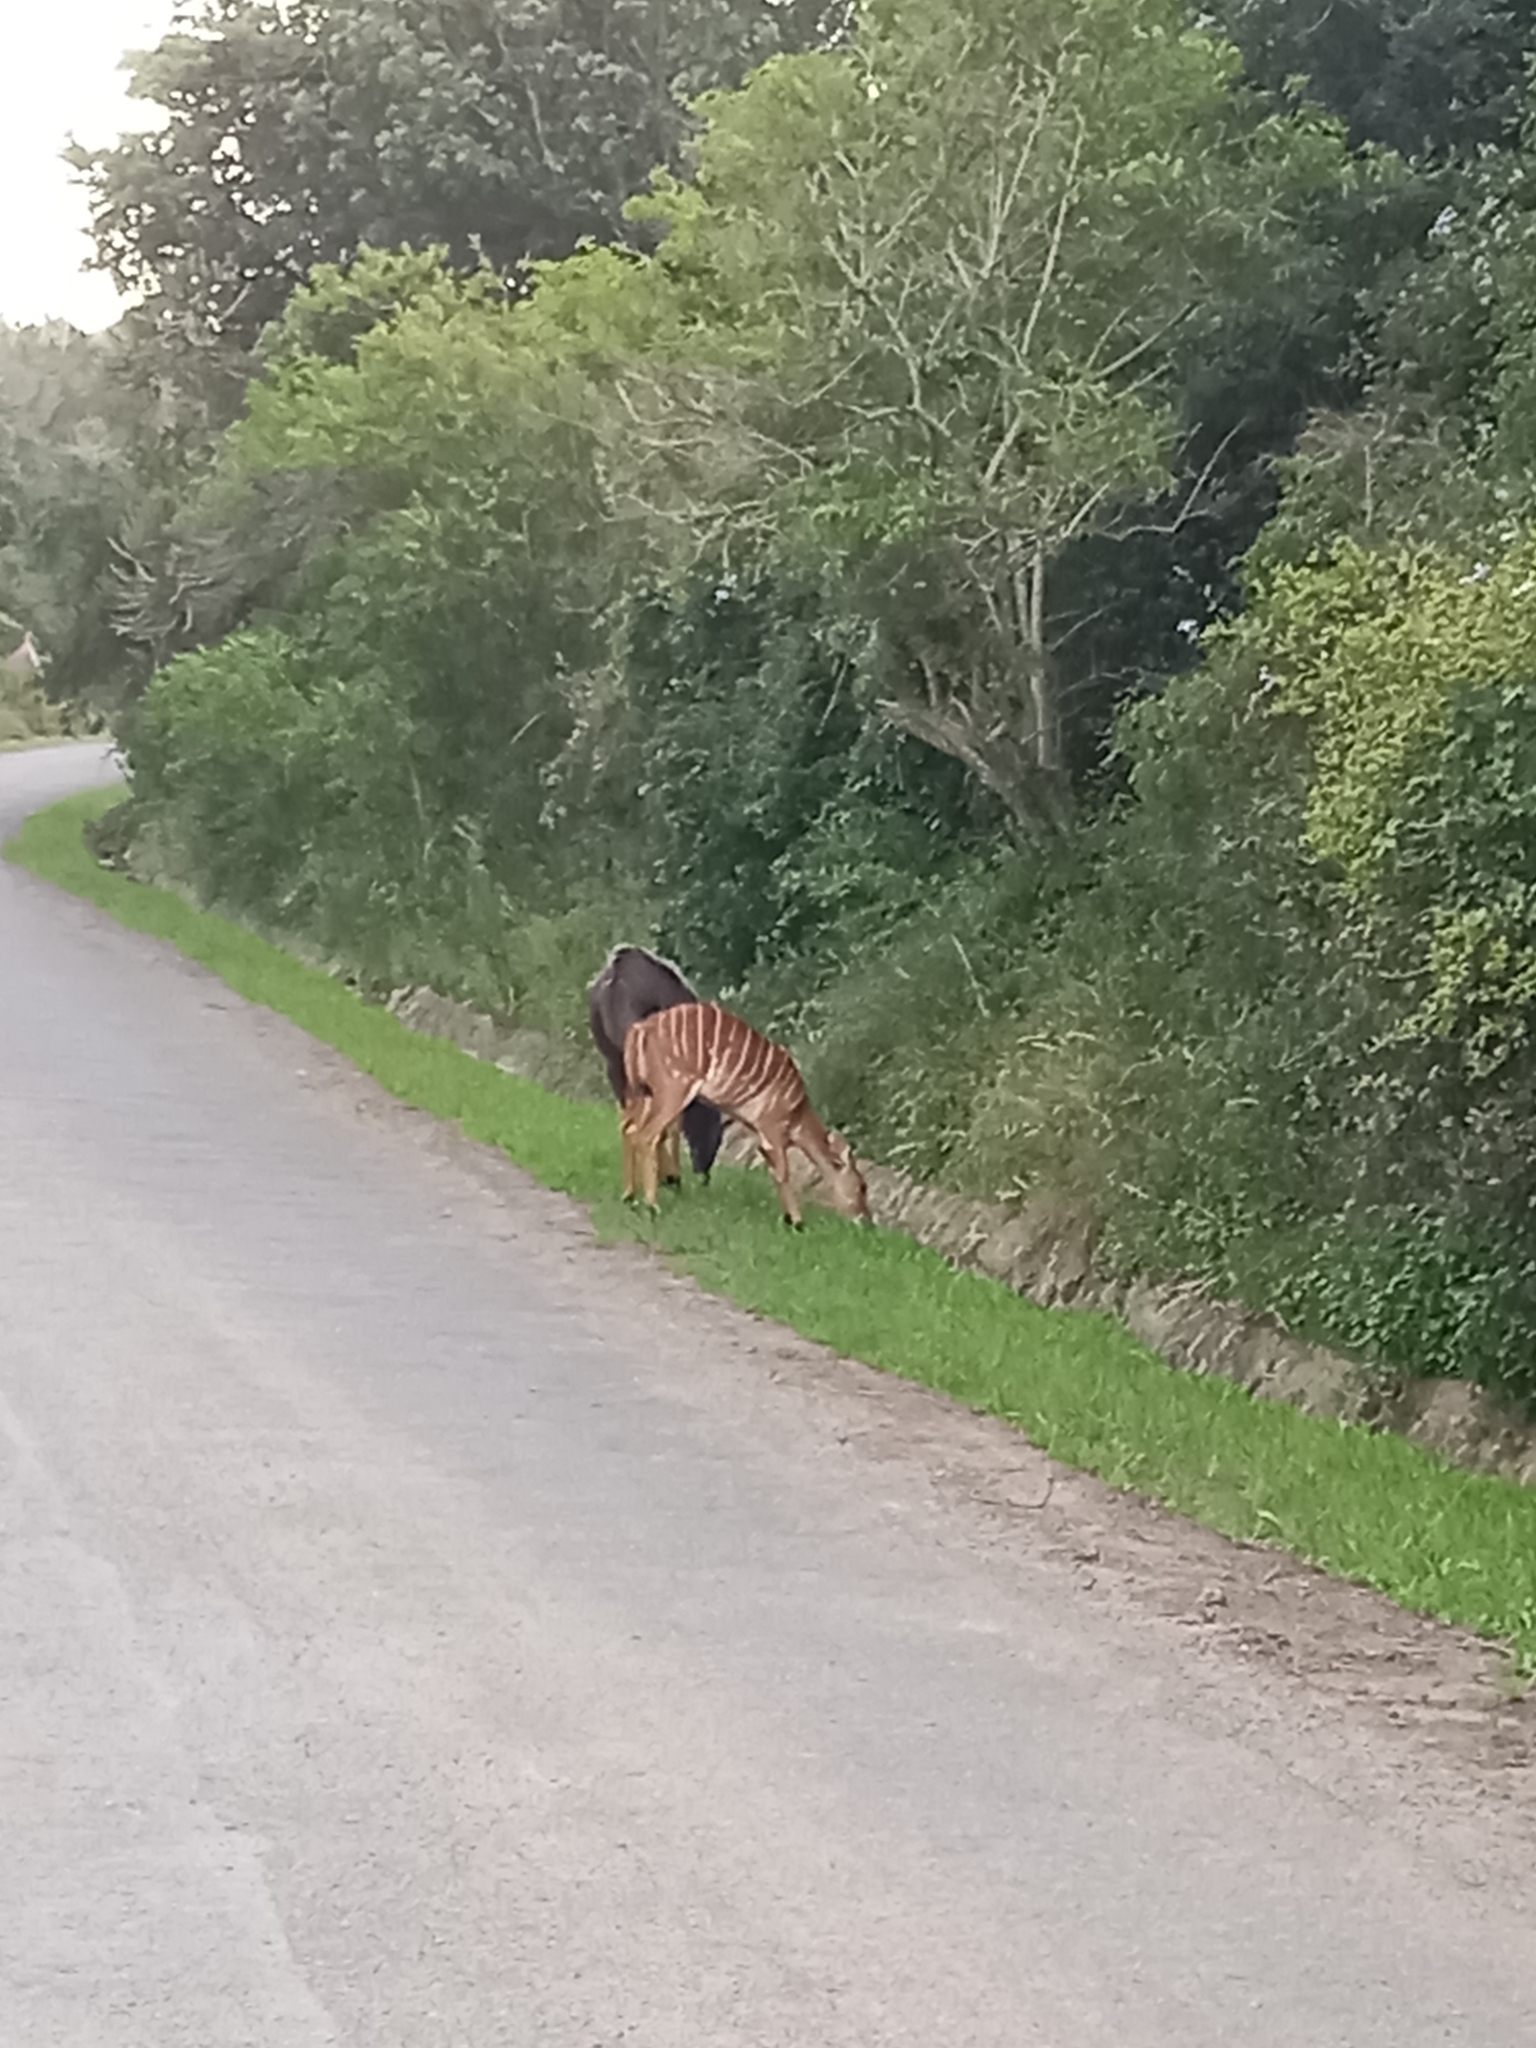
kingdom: Animalia
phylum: Chordata
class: Mammalia
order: Artiodactyla
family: Bovidae
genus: Tragelaphus
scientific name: Tragelaphus angasii
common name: Nyala
